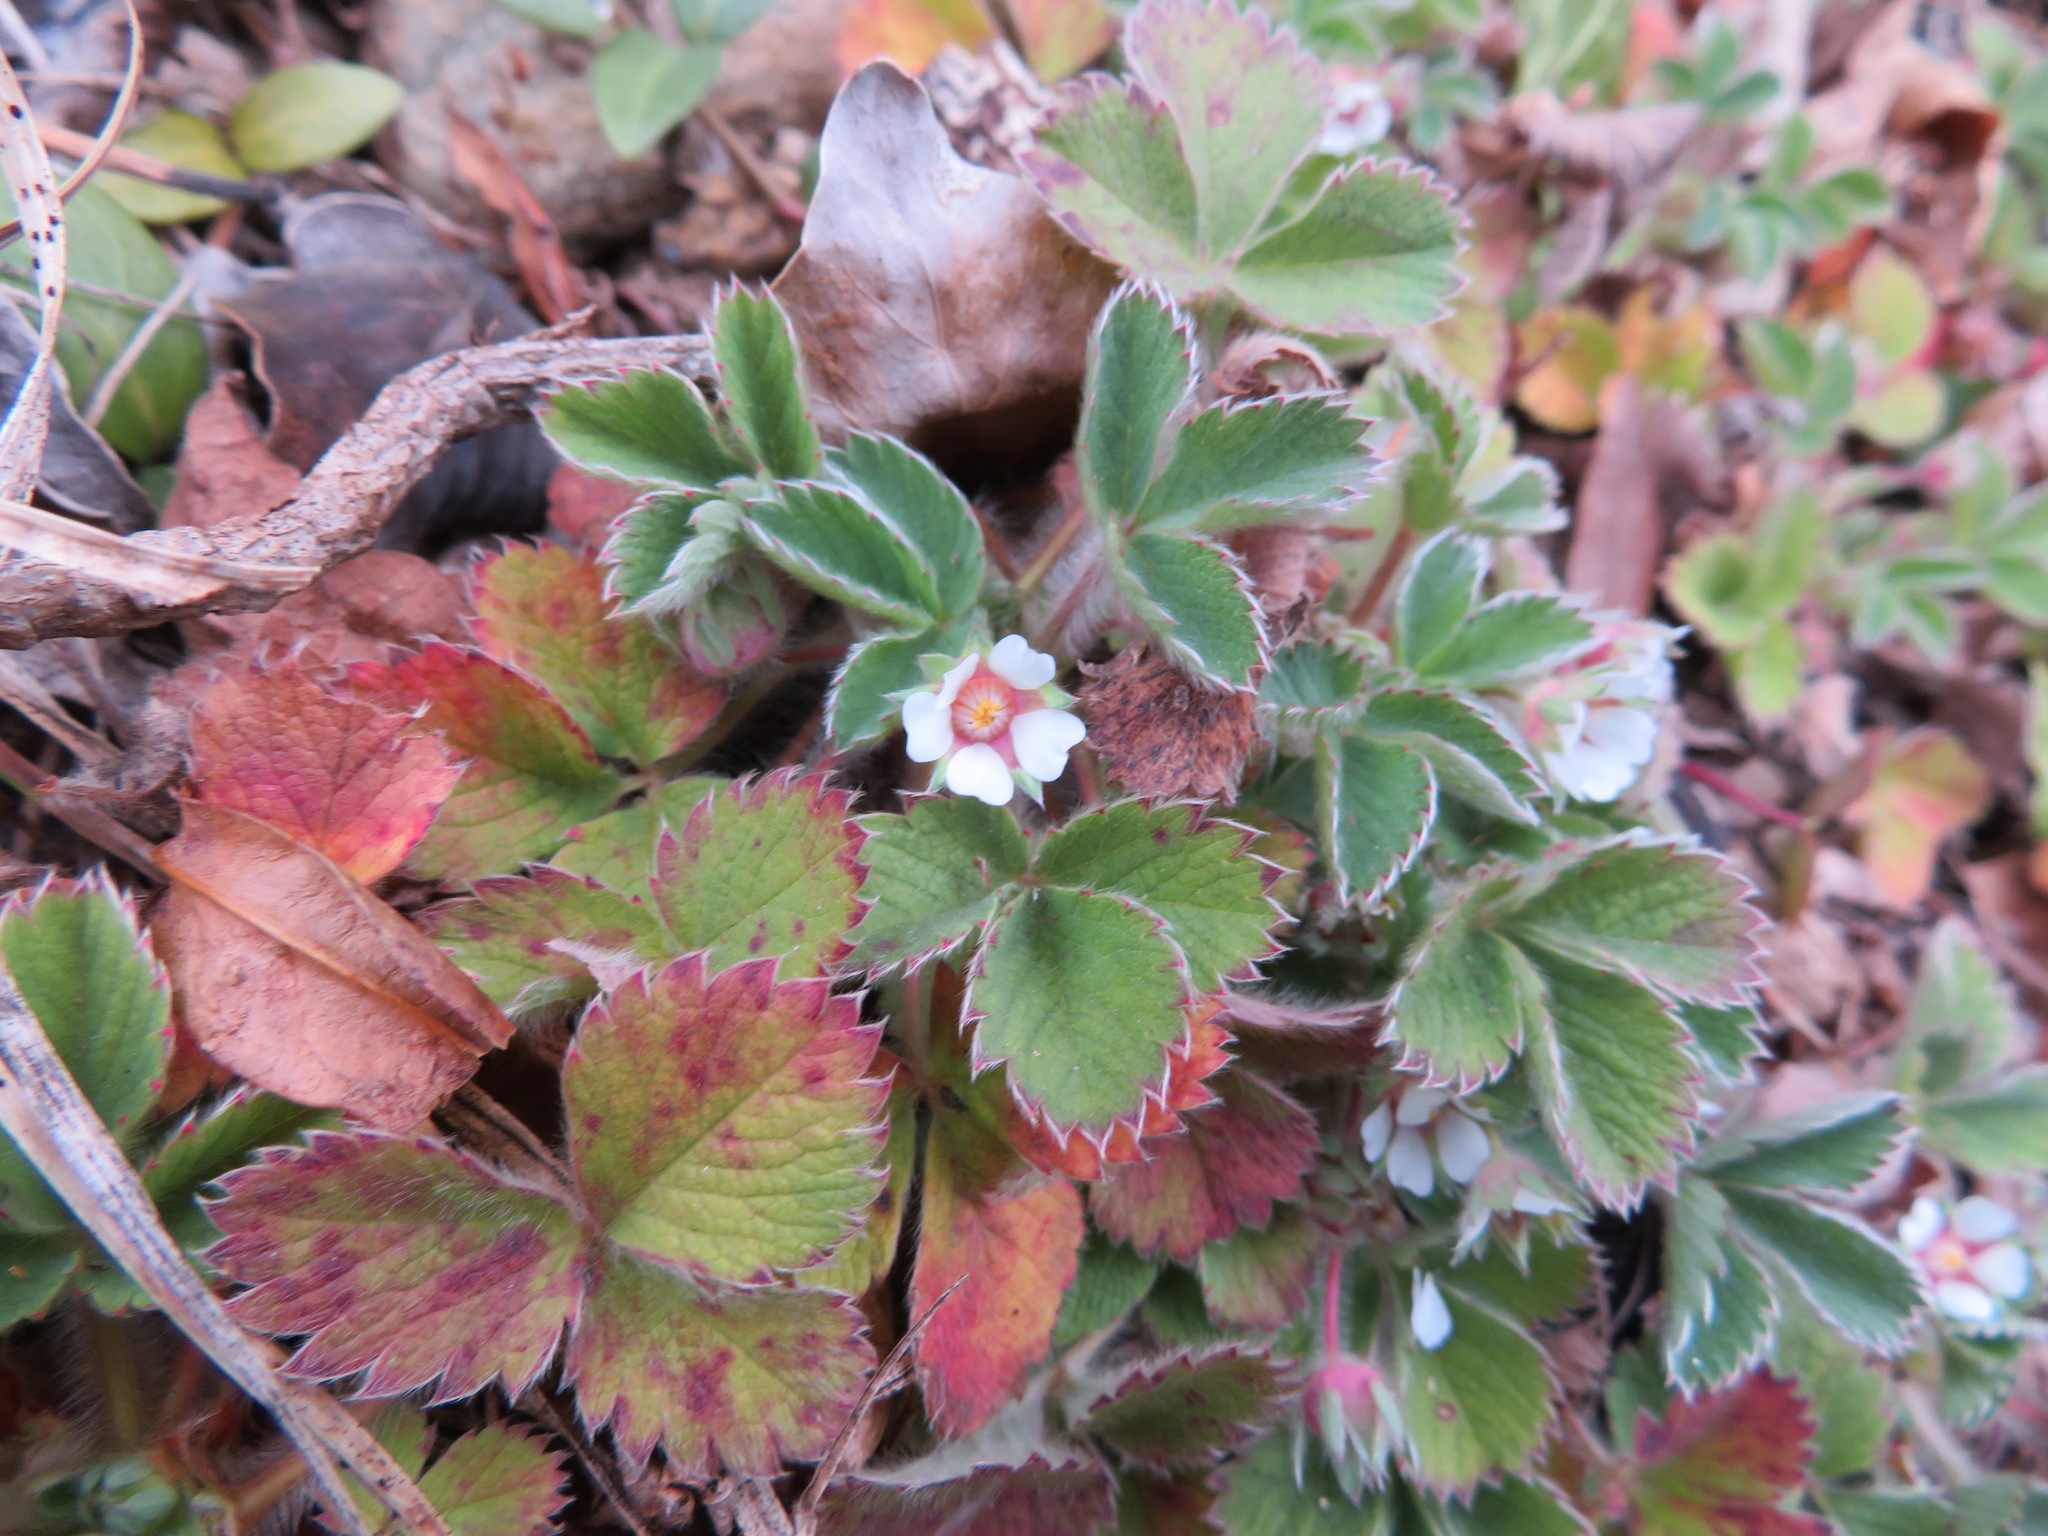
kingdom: Plantae
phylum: Tracheophyta
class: Magnoliopsida
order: Rosales
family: Rosaceae
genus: Potentilla
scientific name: Potentilla micrantha
